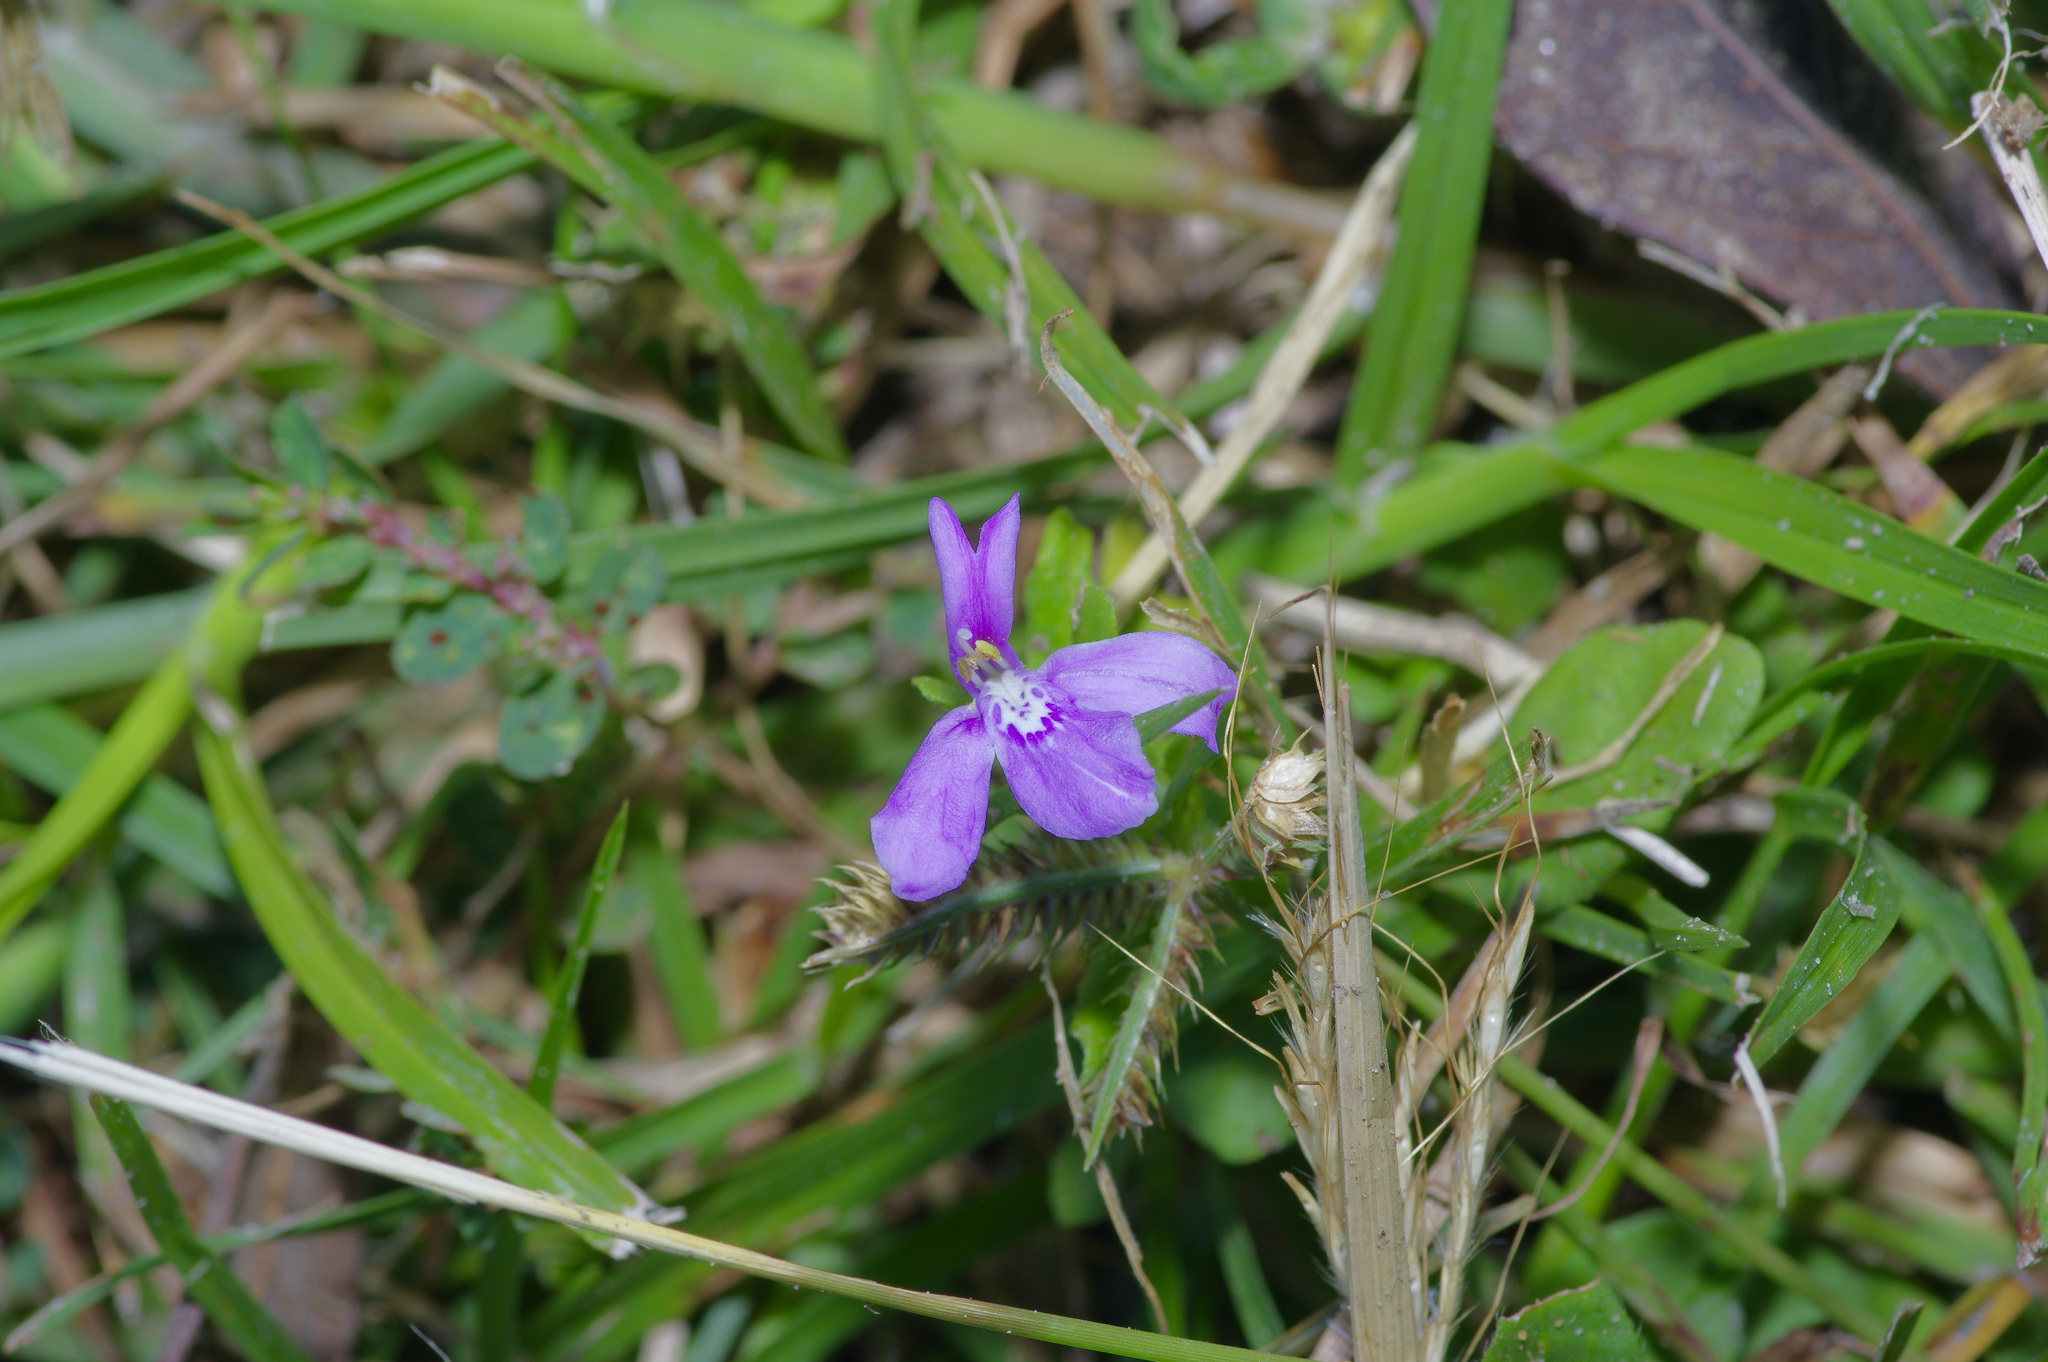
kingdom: Plantae
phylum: Tracheophyta
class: Magnoliopsida
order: Lamiales
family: Acanthaceae
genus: Justicia
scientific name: Justicia pilosella
